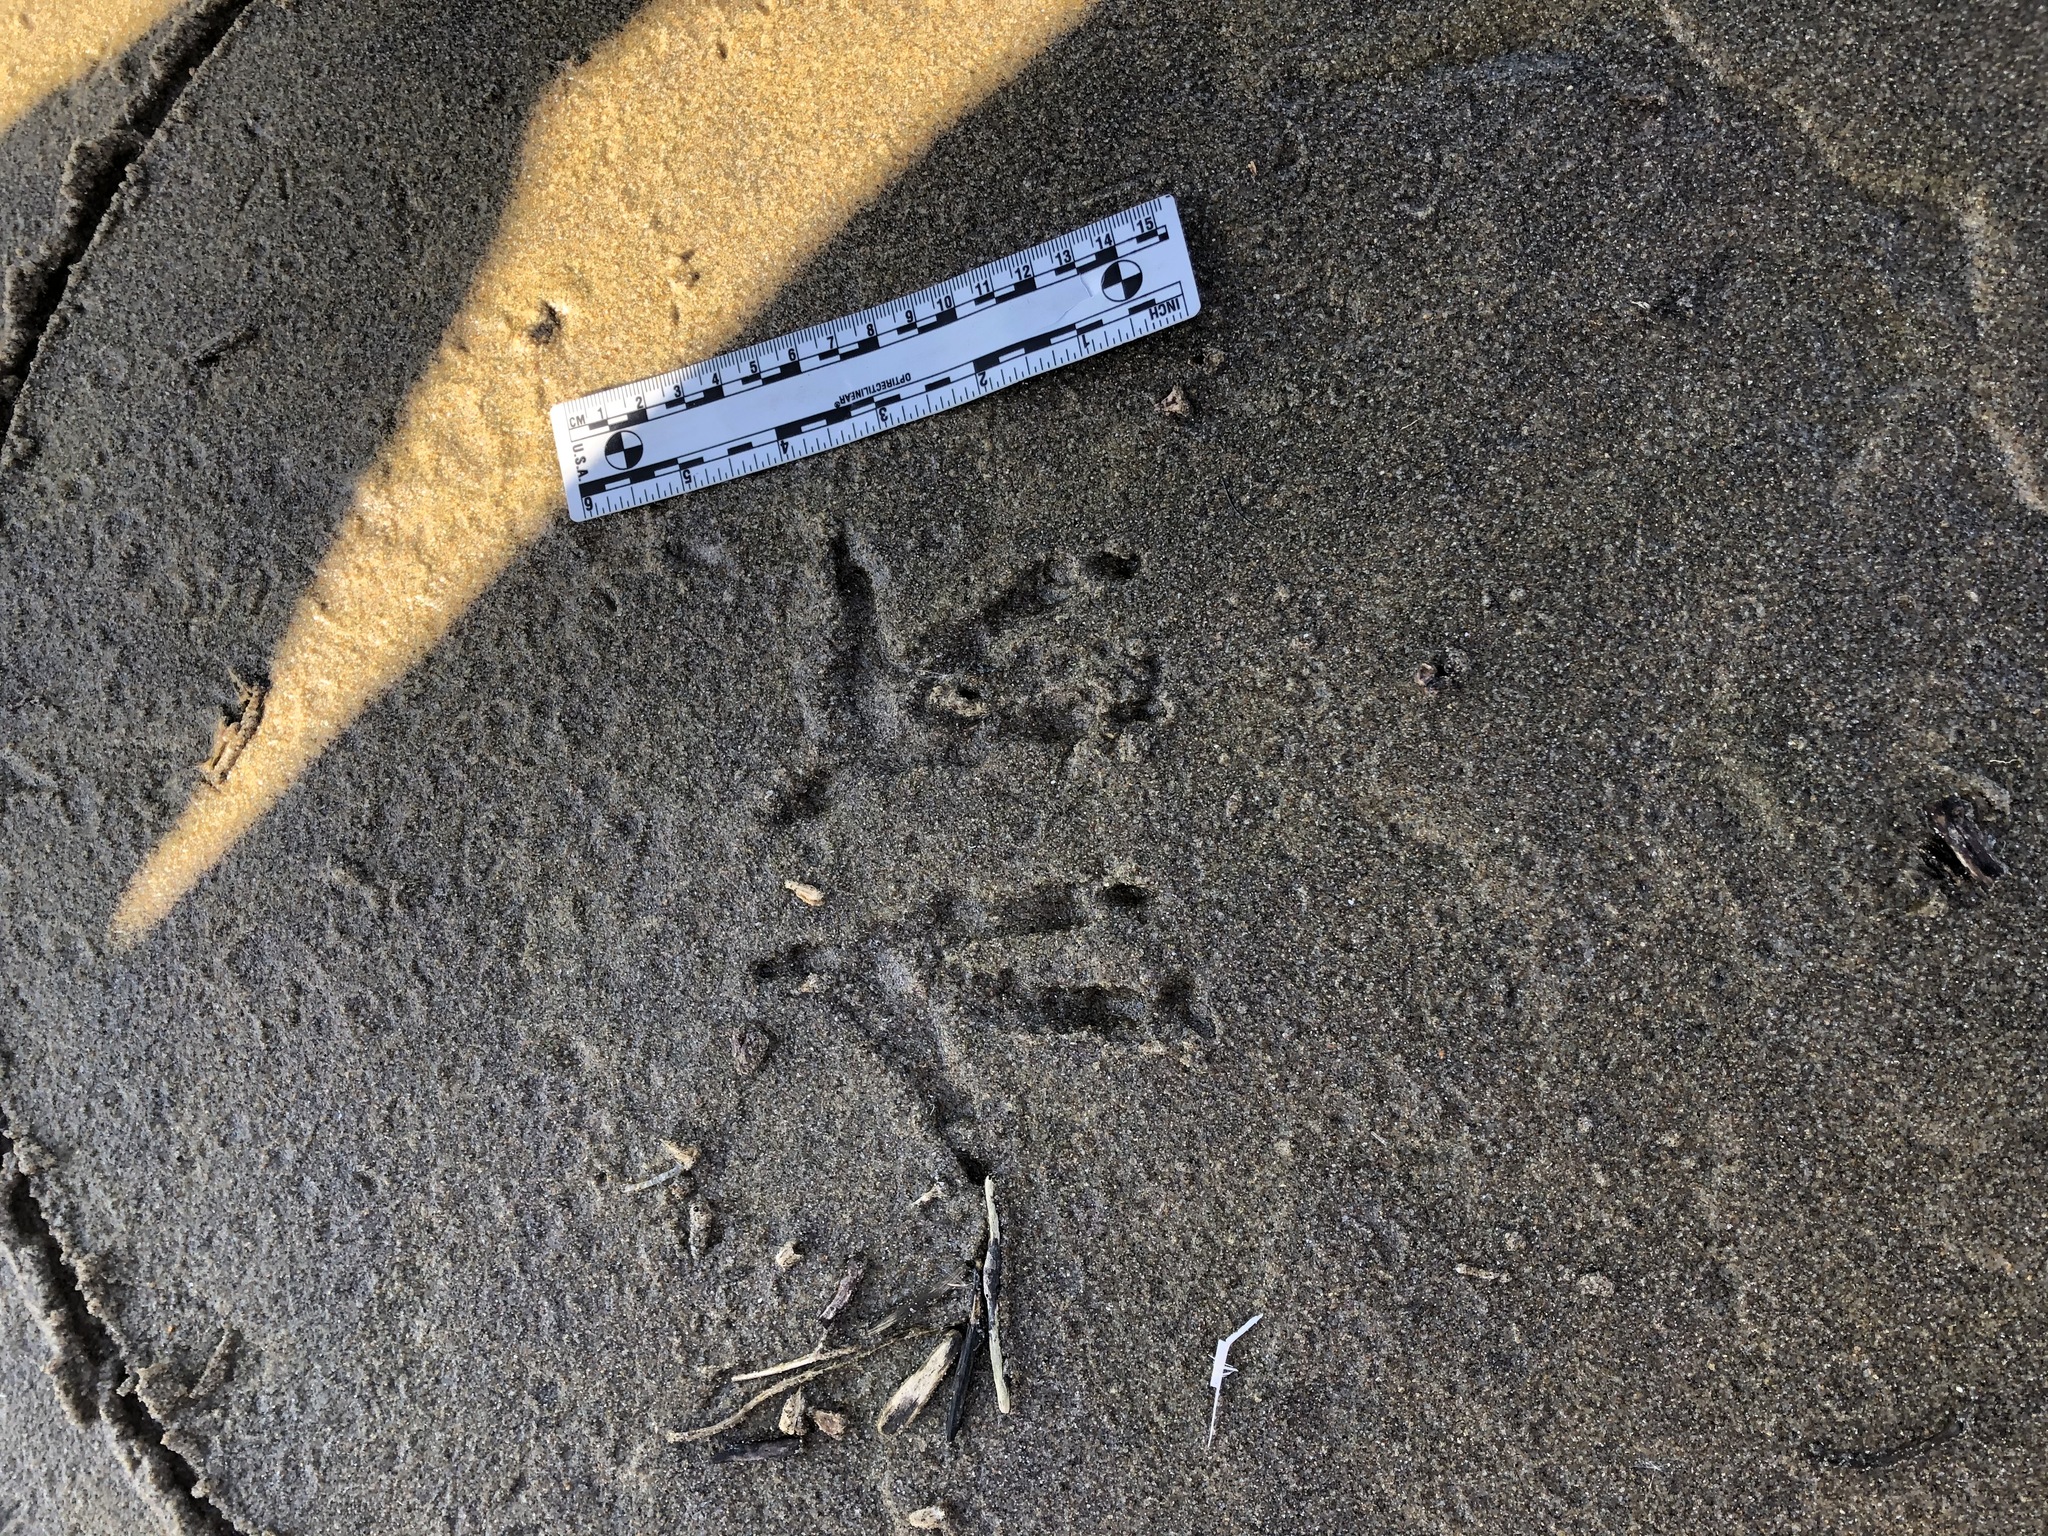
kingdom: Animalia
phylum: Chordata
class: Aves
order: Strigiformes
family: Strigidae
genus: Bubo
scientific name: Bubo virginianus
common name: Great horned owl
